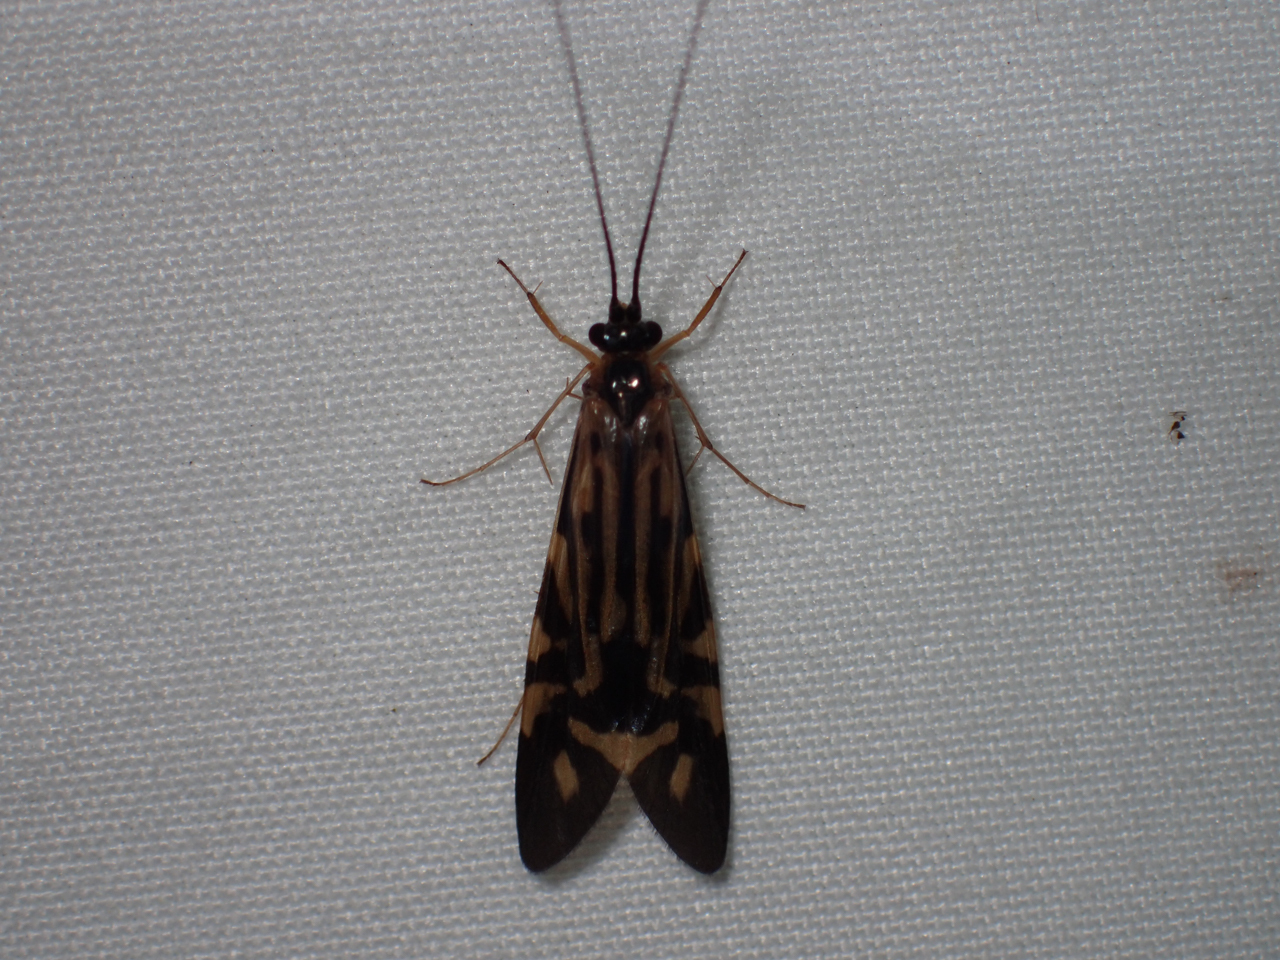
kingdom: Animalia
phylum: Arthropoda
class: Insecta
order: Trichoptera
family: Hydropsychidae
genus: Macrostemum
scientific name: Macrostemum zebratum
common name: Zebra caddisfly
